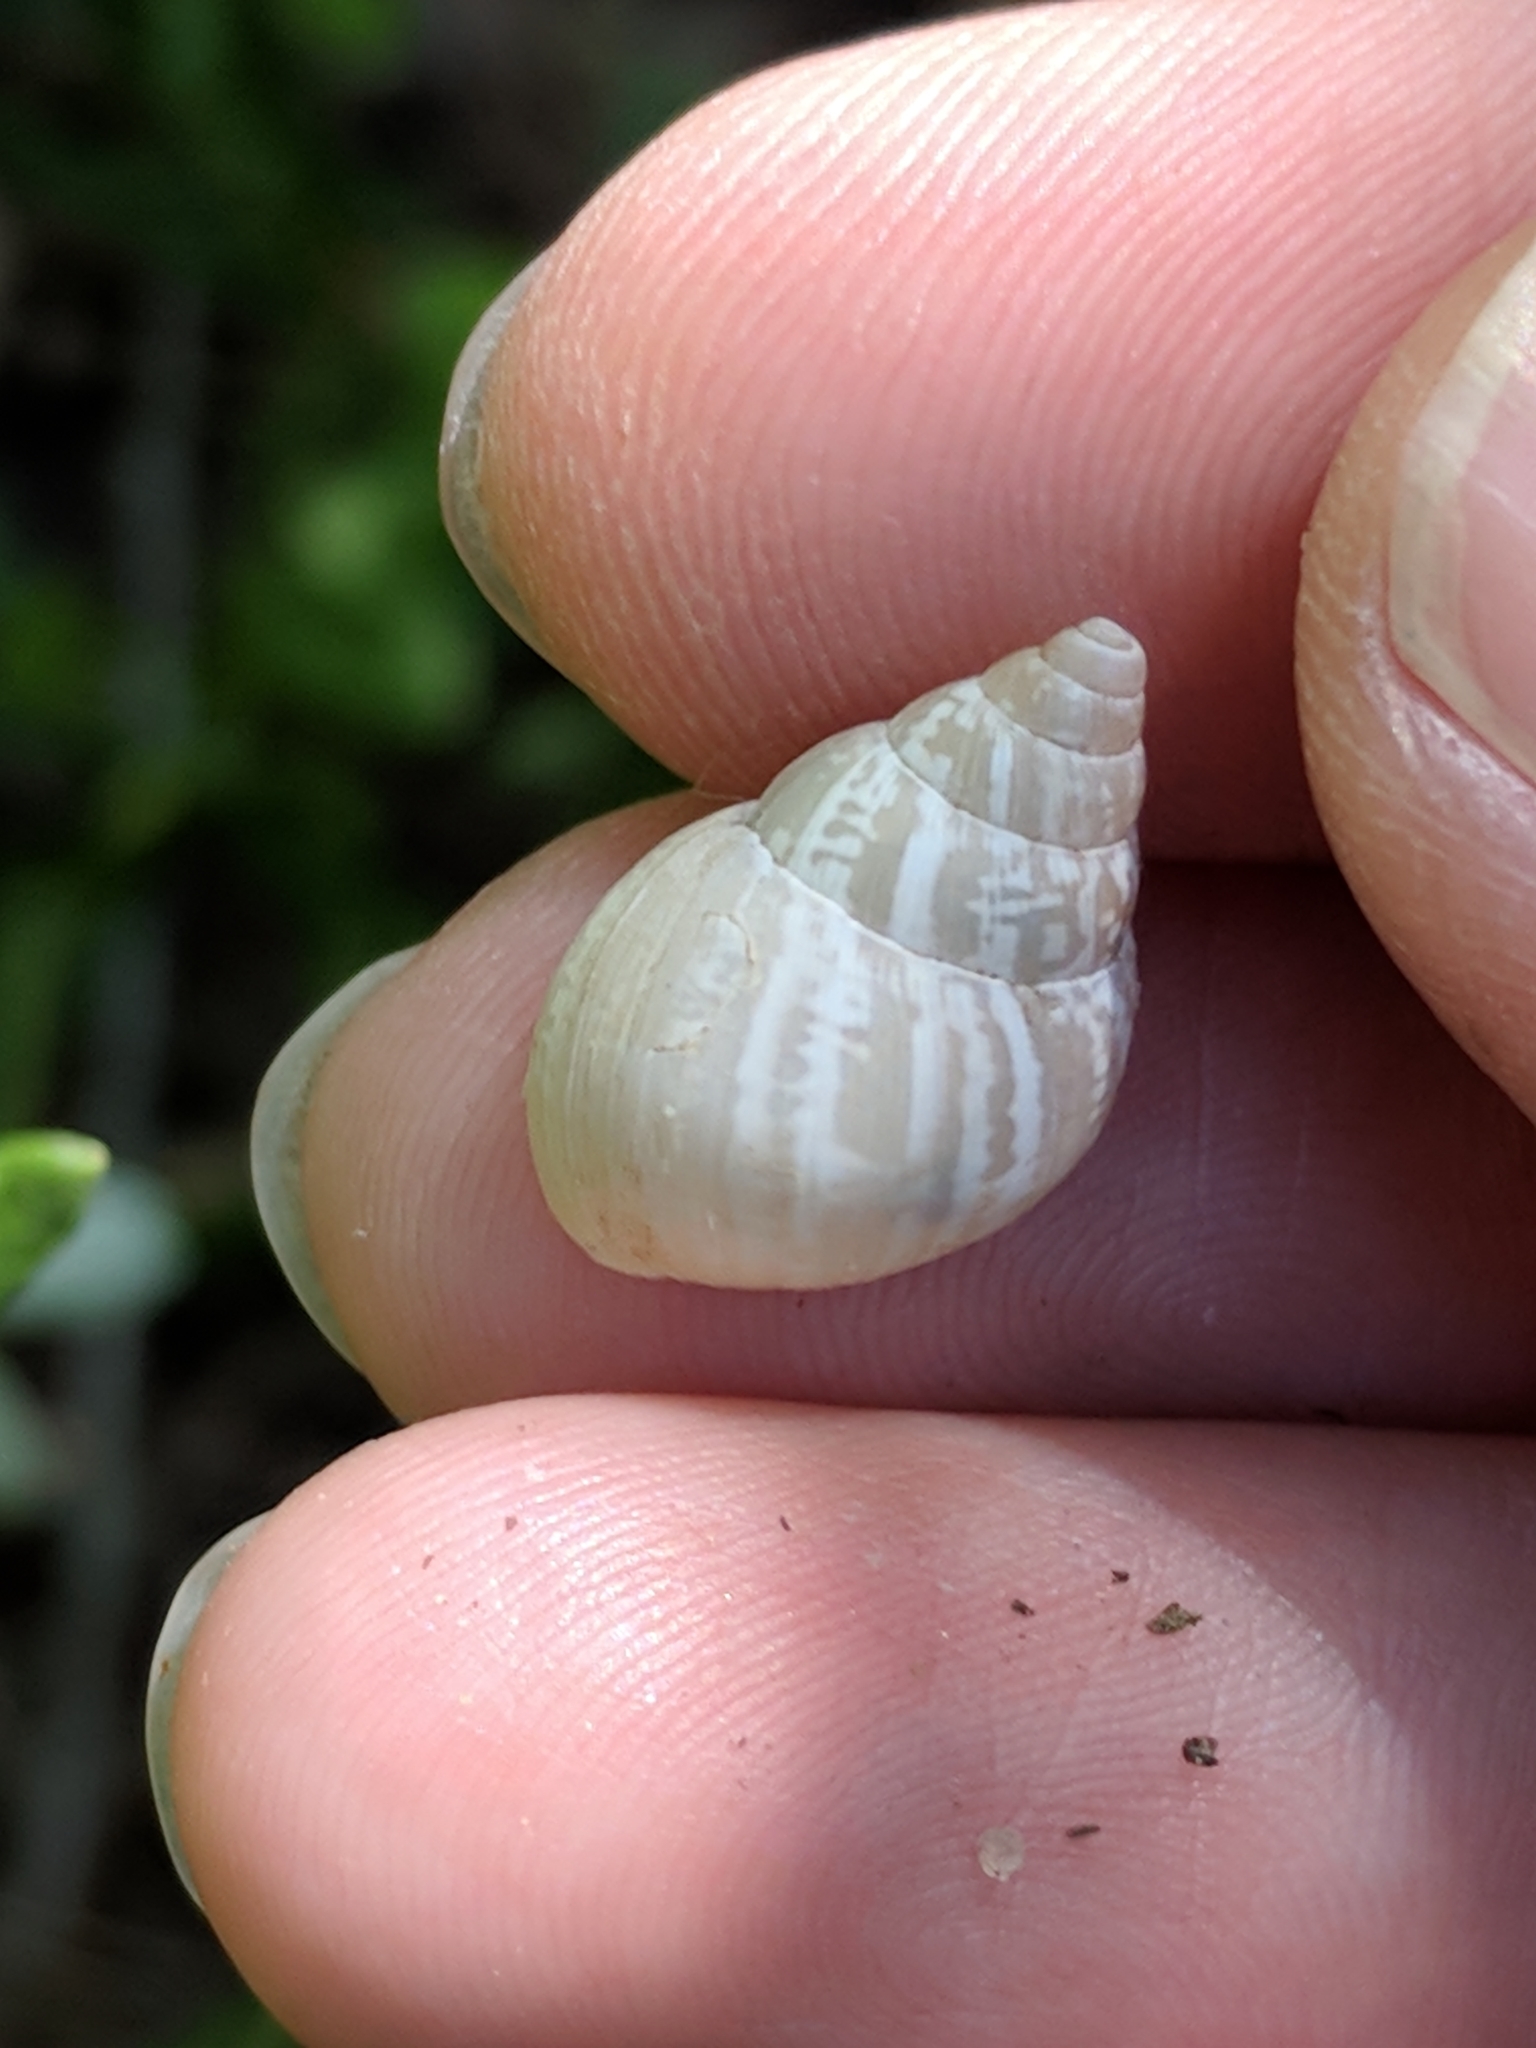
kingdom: Animalia
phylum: Mollusca
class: Gastropoda
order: Stylommatophora
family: Bulimulidae
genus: Rabdotus
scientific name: Rabdotus dealbatus
